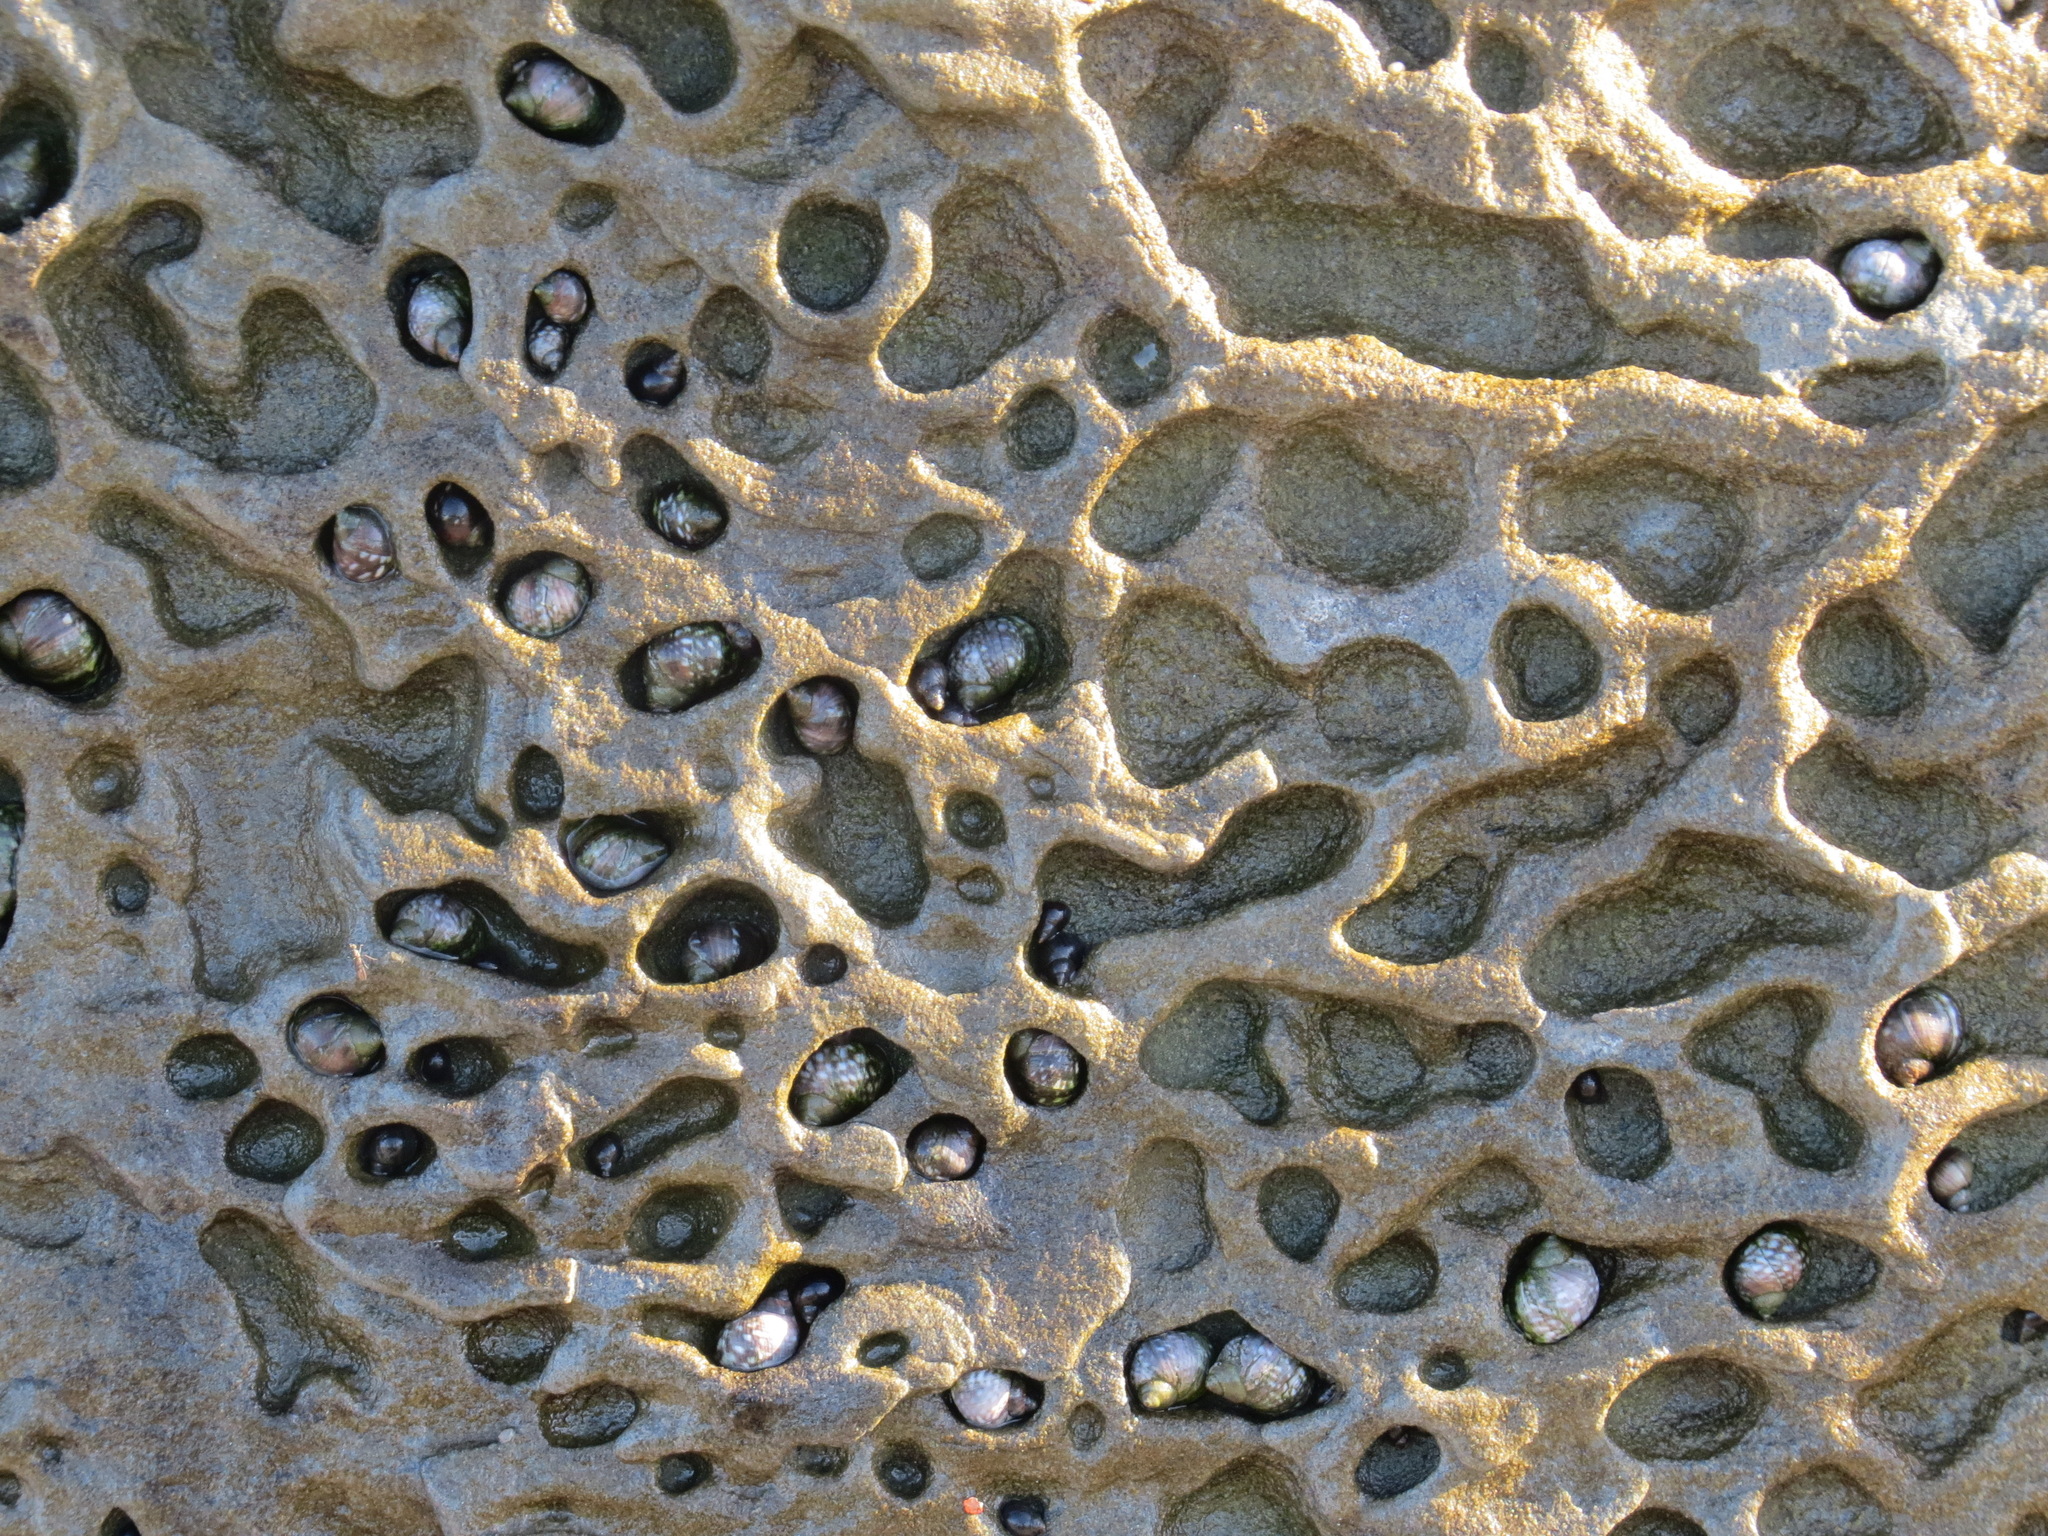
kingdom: Animalia
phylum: Mollusca
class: Gastropoda
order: Littorinimorpha
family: Littorinidae
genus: Littorina
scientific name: Littorina keenae
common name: Eroded periwinkle
